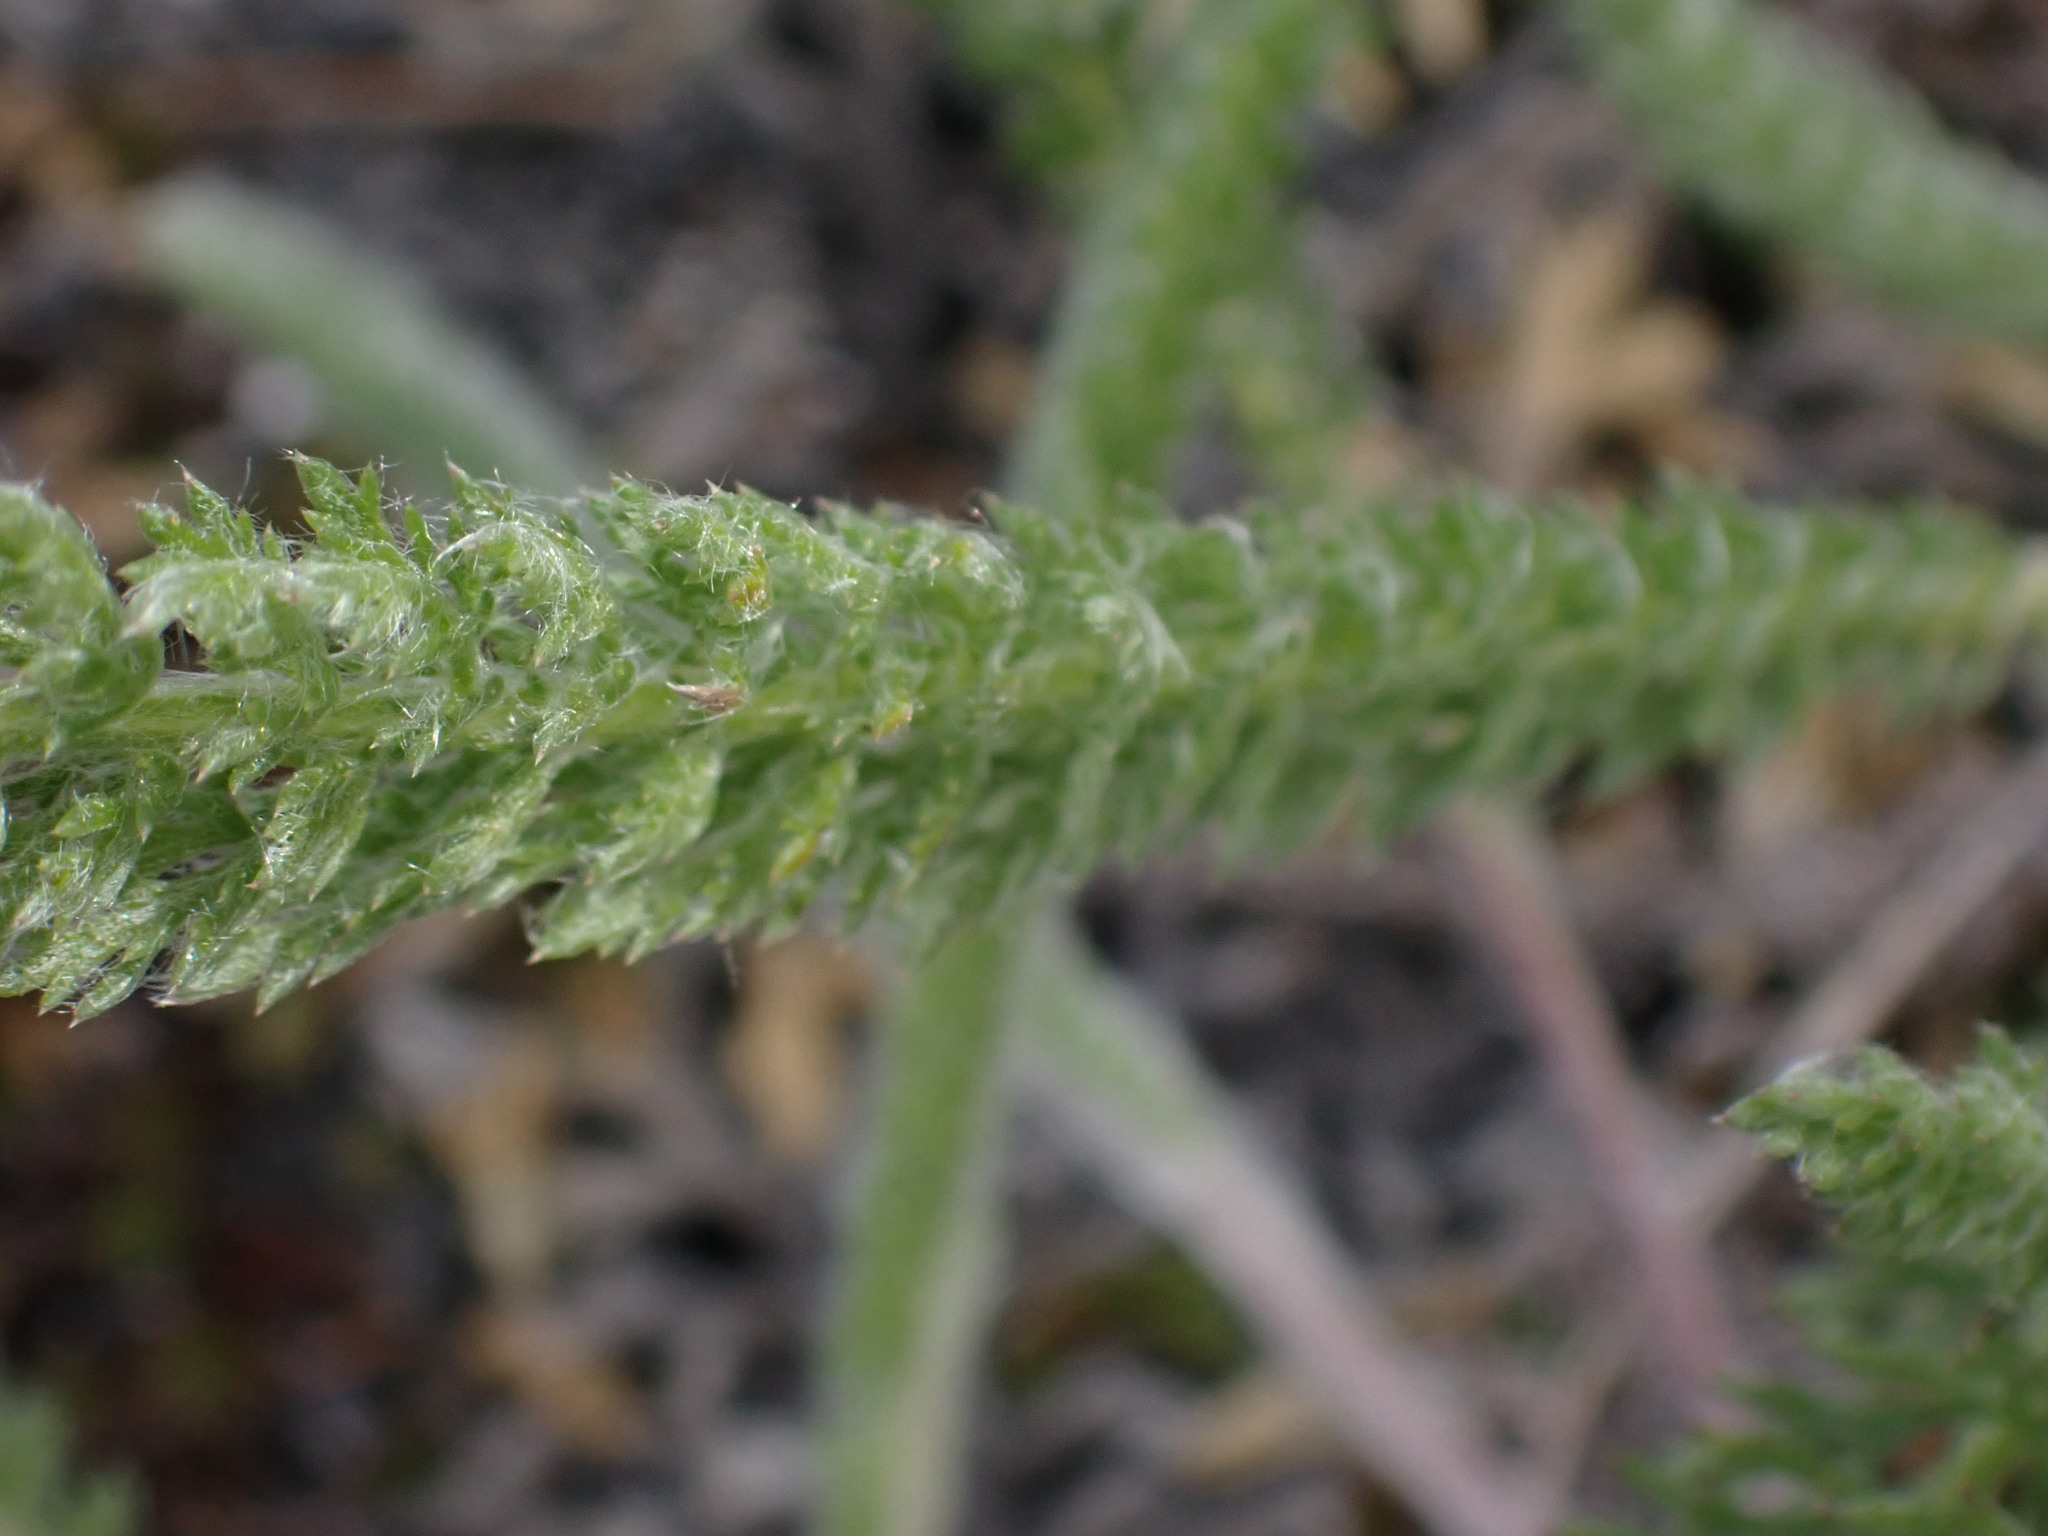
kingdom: Plantae
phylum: Tracheophyta
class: Magnoliopsida
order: Asterales
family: Asteraceae
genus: Achillea
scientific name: Achillea millefolium
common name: Yarrow
